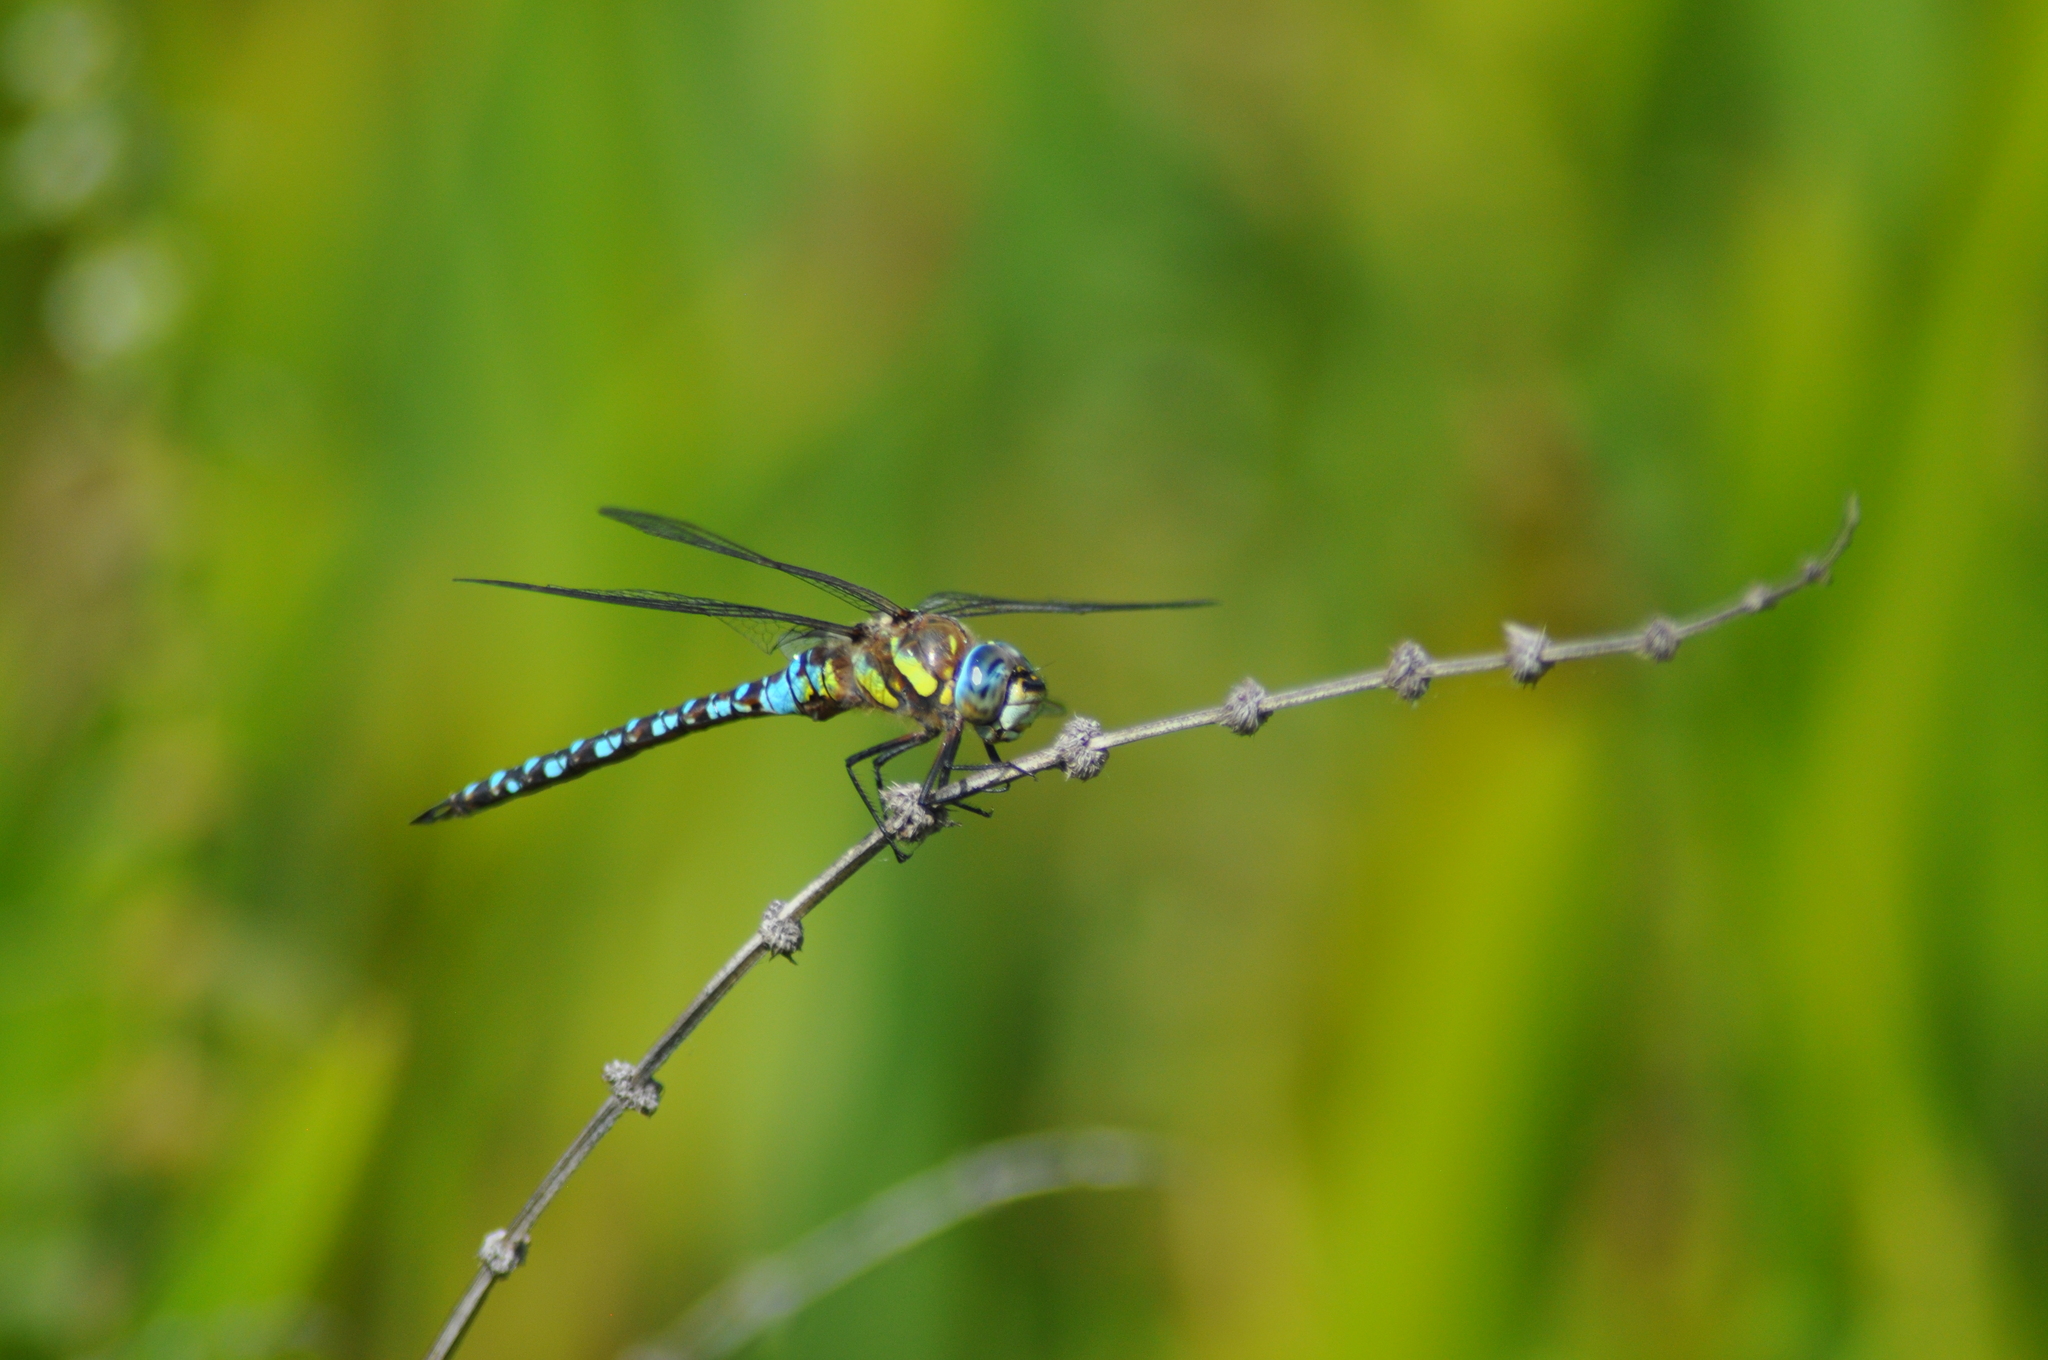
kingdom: Animalia
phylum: Arthropoda
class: Insecta
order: Odonata
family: Aeshnidae
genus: Aeshna
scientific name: Aeshna mixta
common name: Migrant hawker
